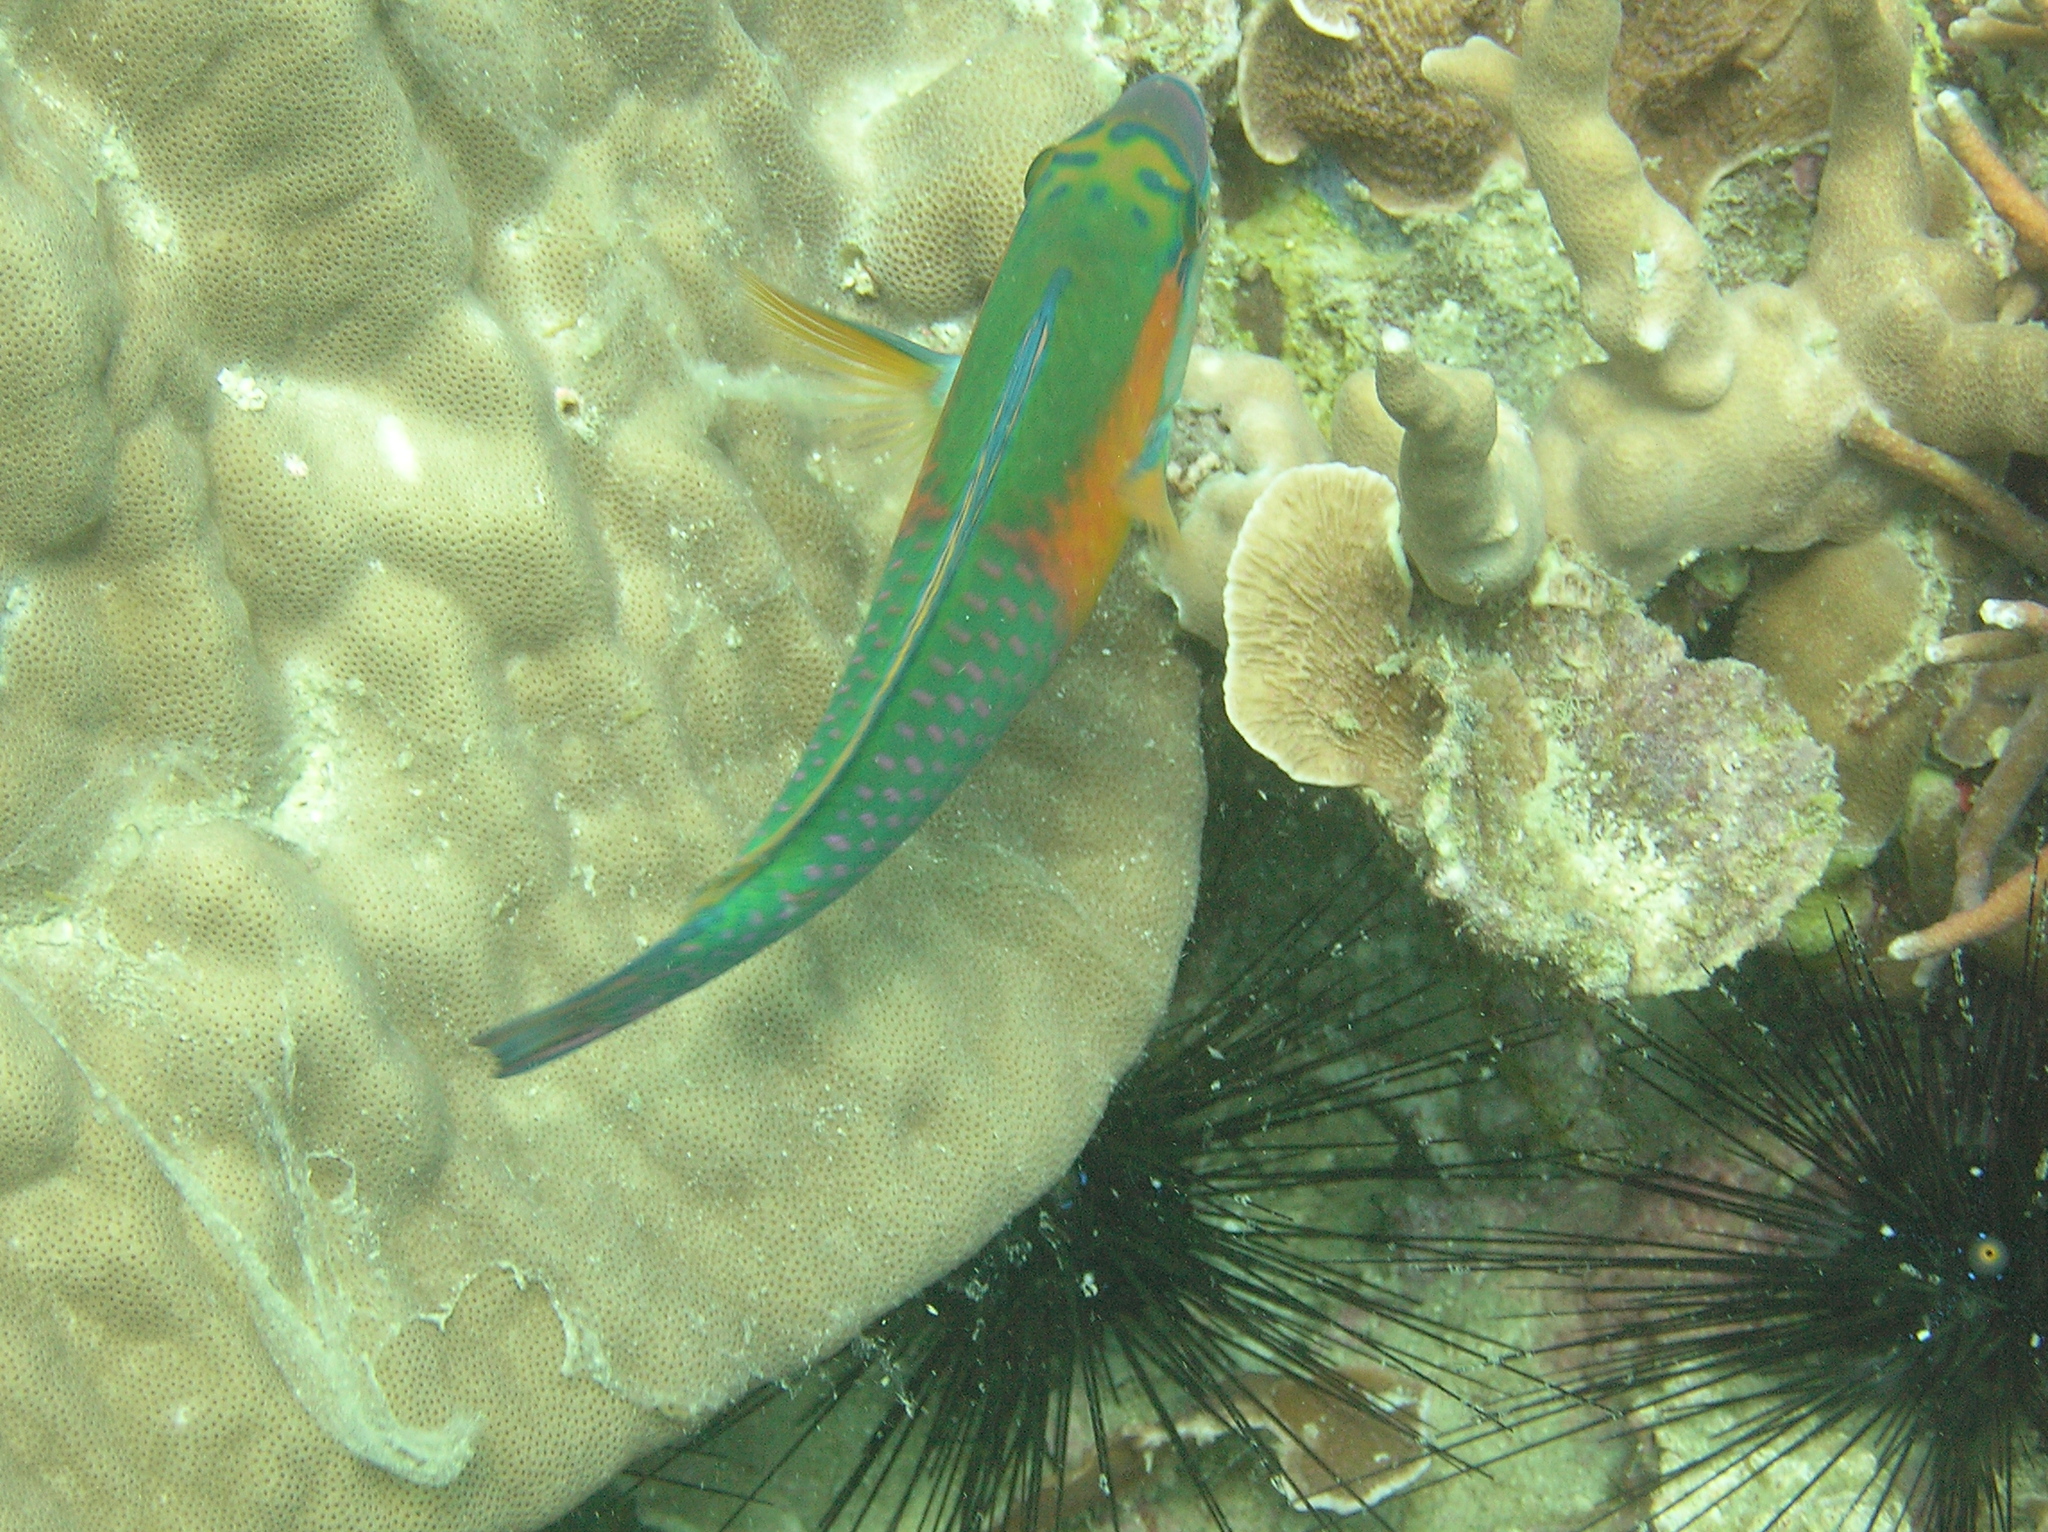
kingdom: Animalia
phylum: Chordata
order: Perciformes
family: Scaridae
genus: Chlorurus
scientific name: Chlorurus bowersi
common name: Bower's parrotfish
